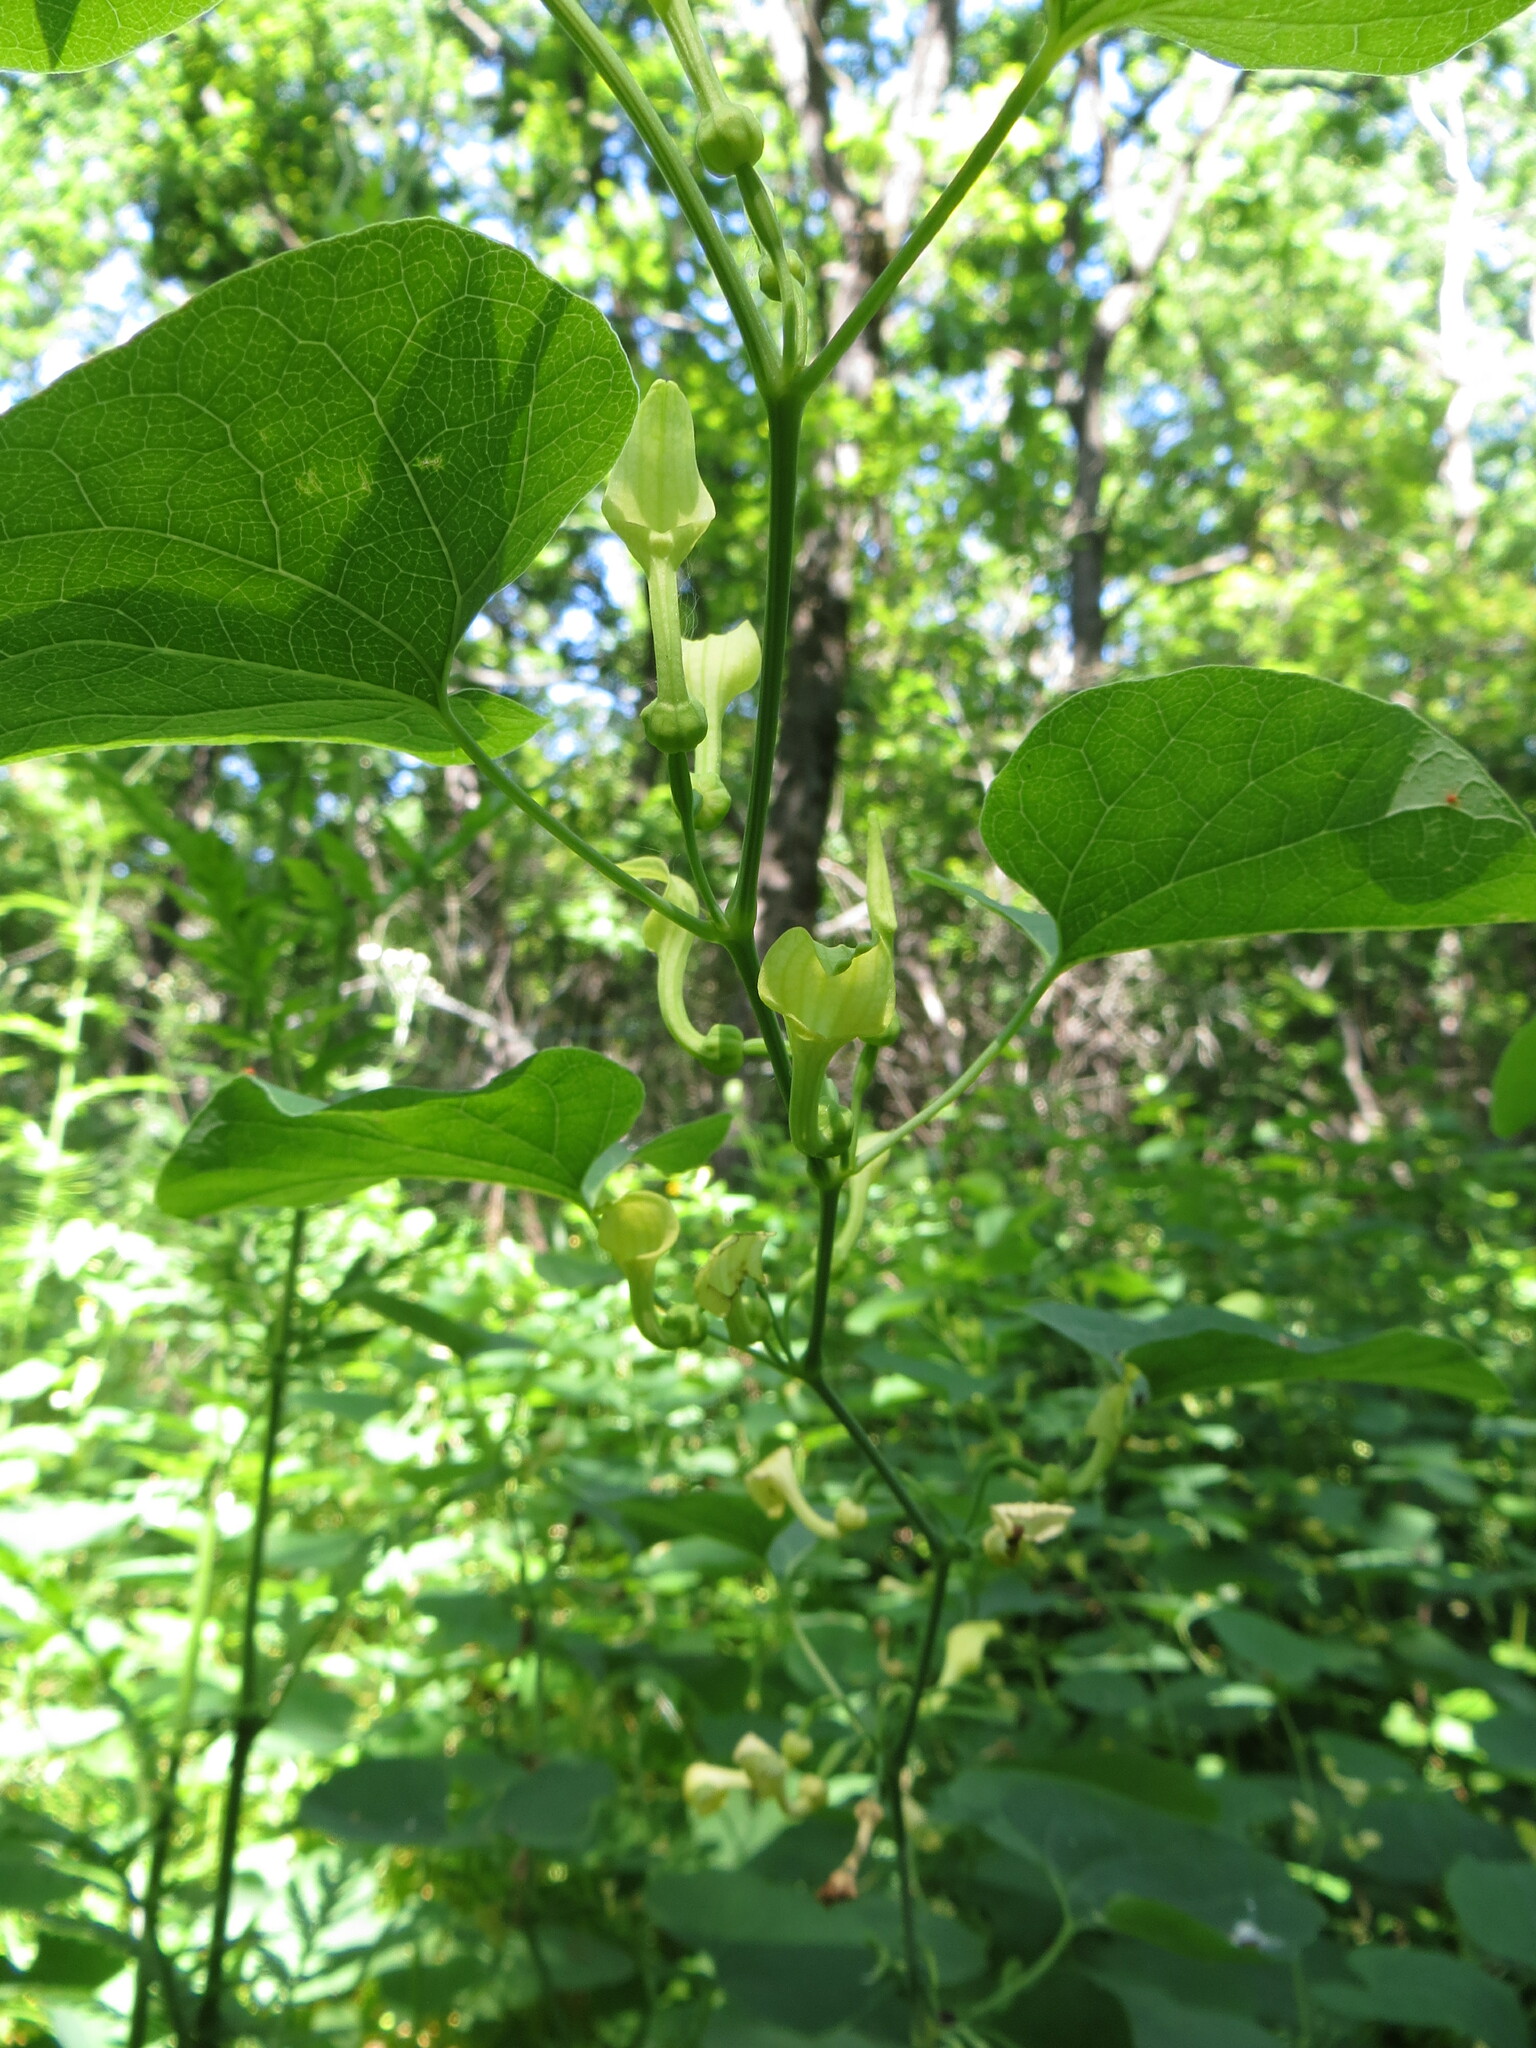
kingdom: Plantae
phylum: Tracheophyta
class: Magnoliopsida
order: Piperales
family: Aristolochiaceae
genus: Aristolochia
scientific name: Aristolochia clematitis
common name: Birthwort
